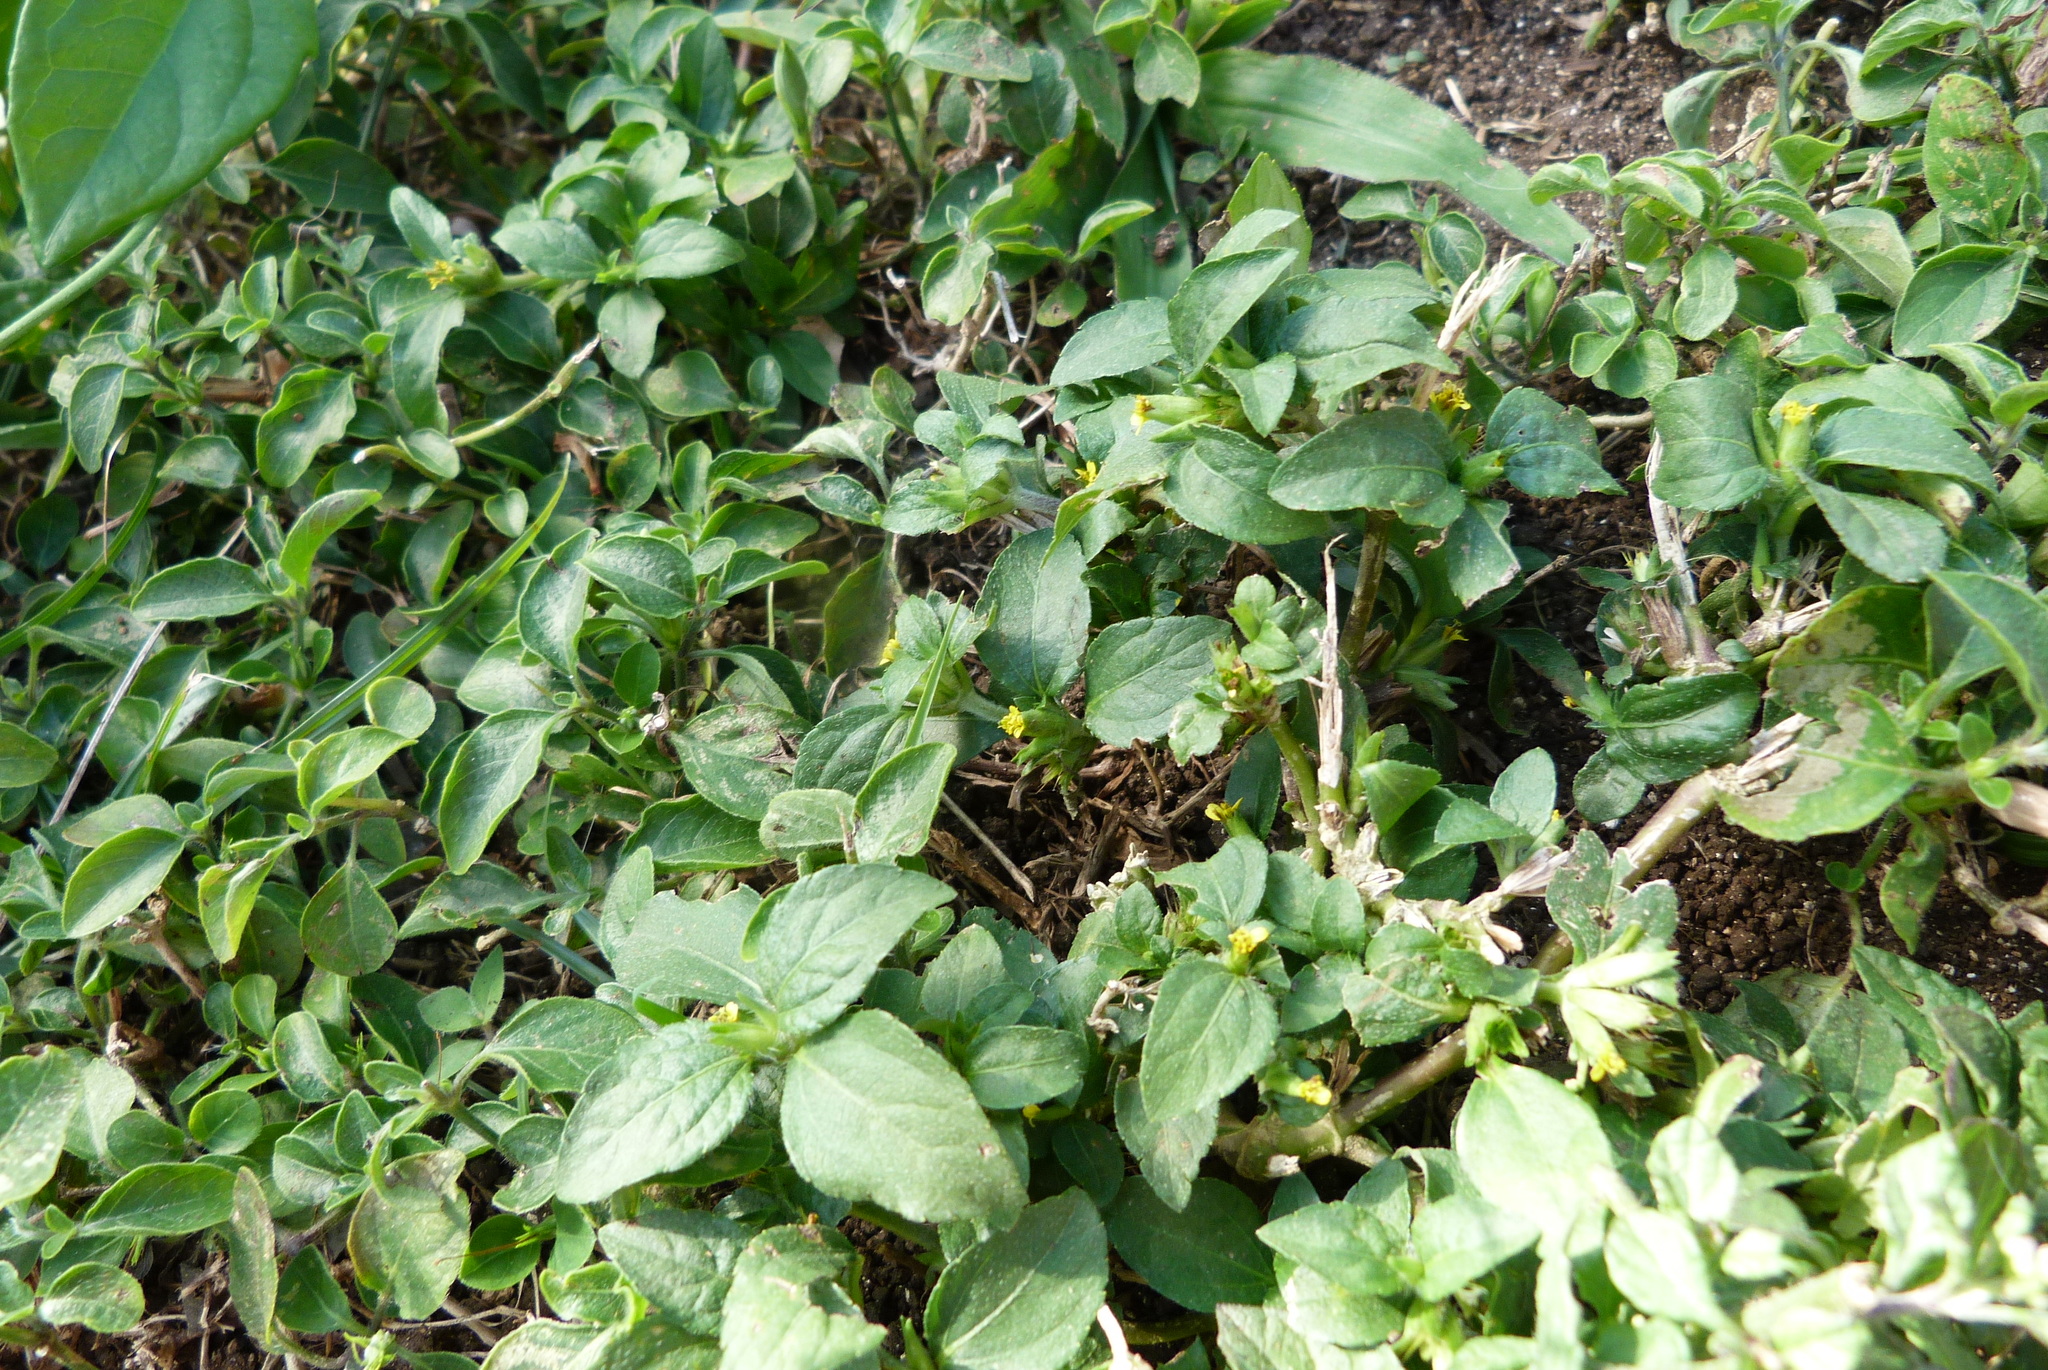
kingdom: Plantae
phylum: Tracheophyta
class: Magnoliopsida
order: Asterales
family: Asteraceae
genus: Synedrella
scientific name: Synedrella nodiflora
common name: Nodeweed
